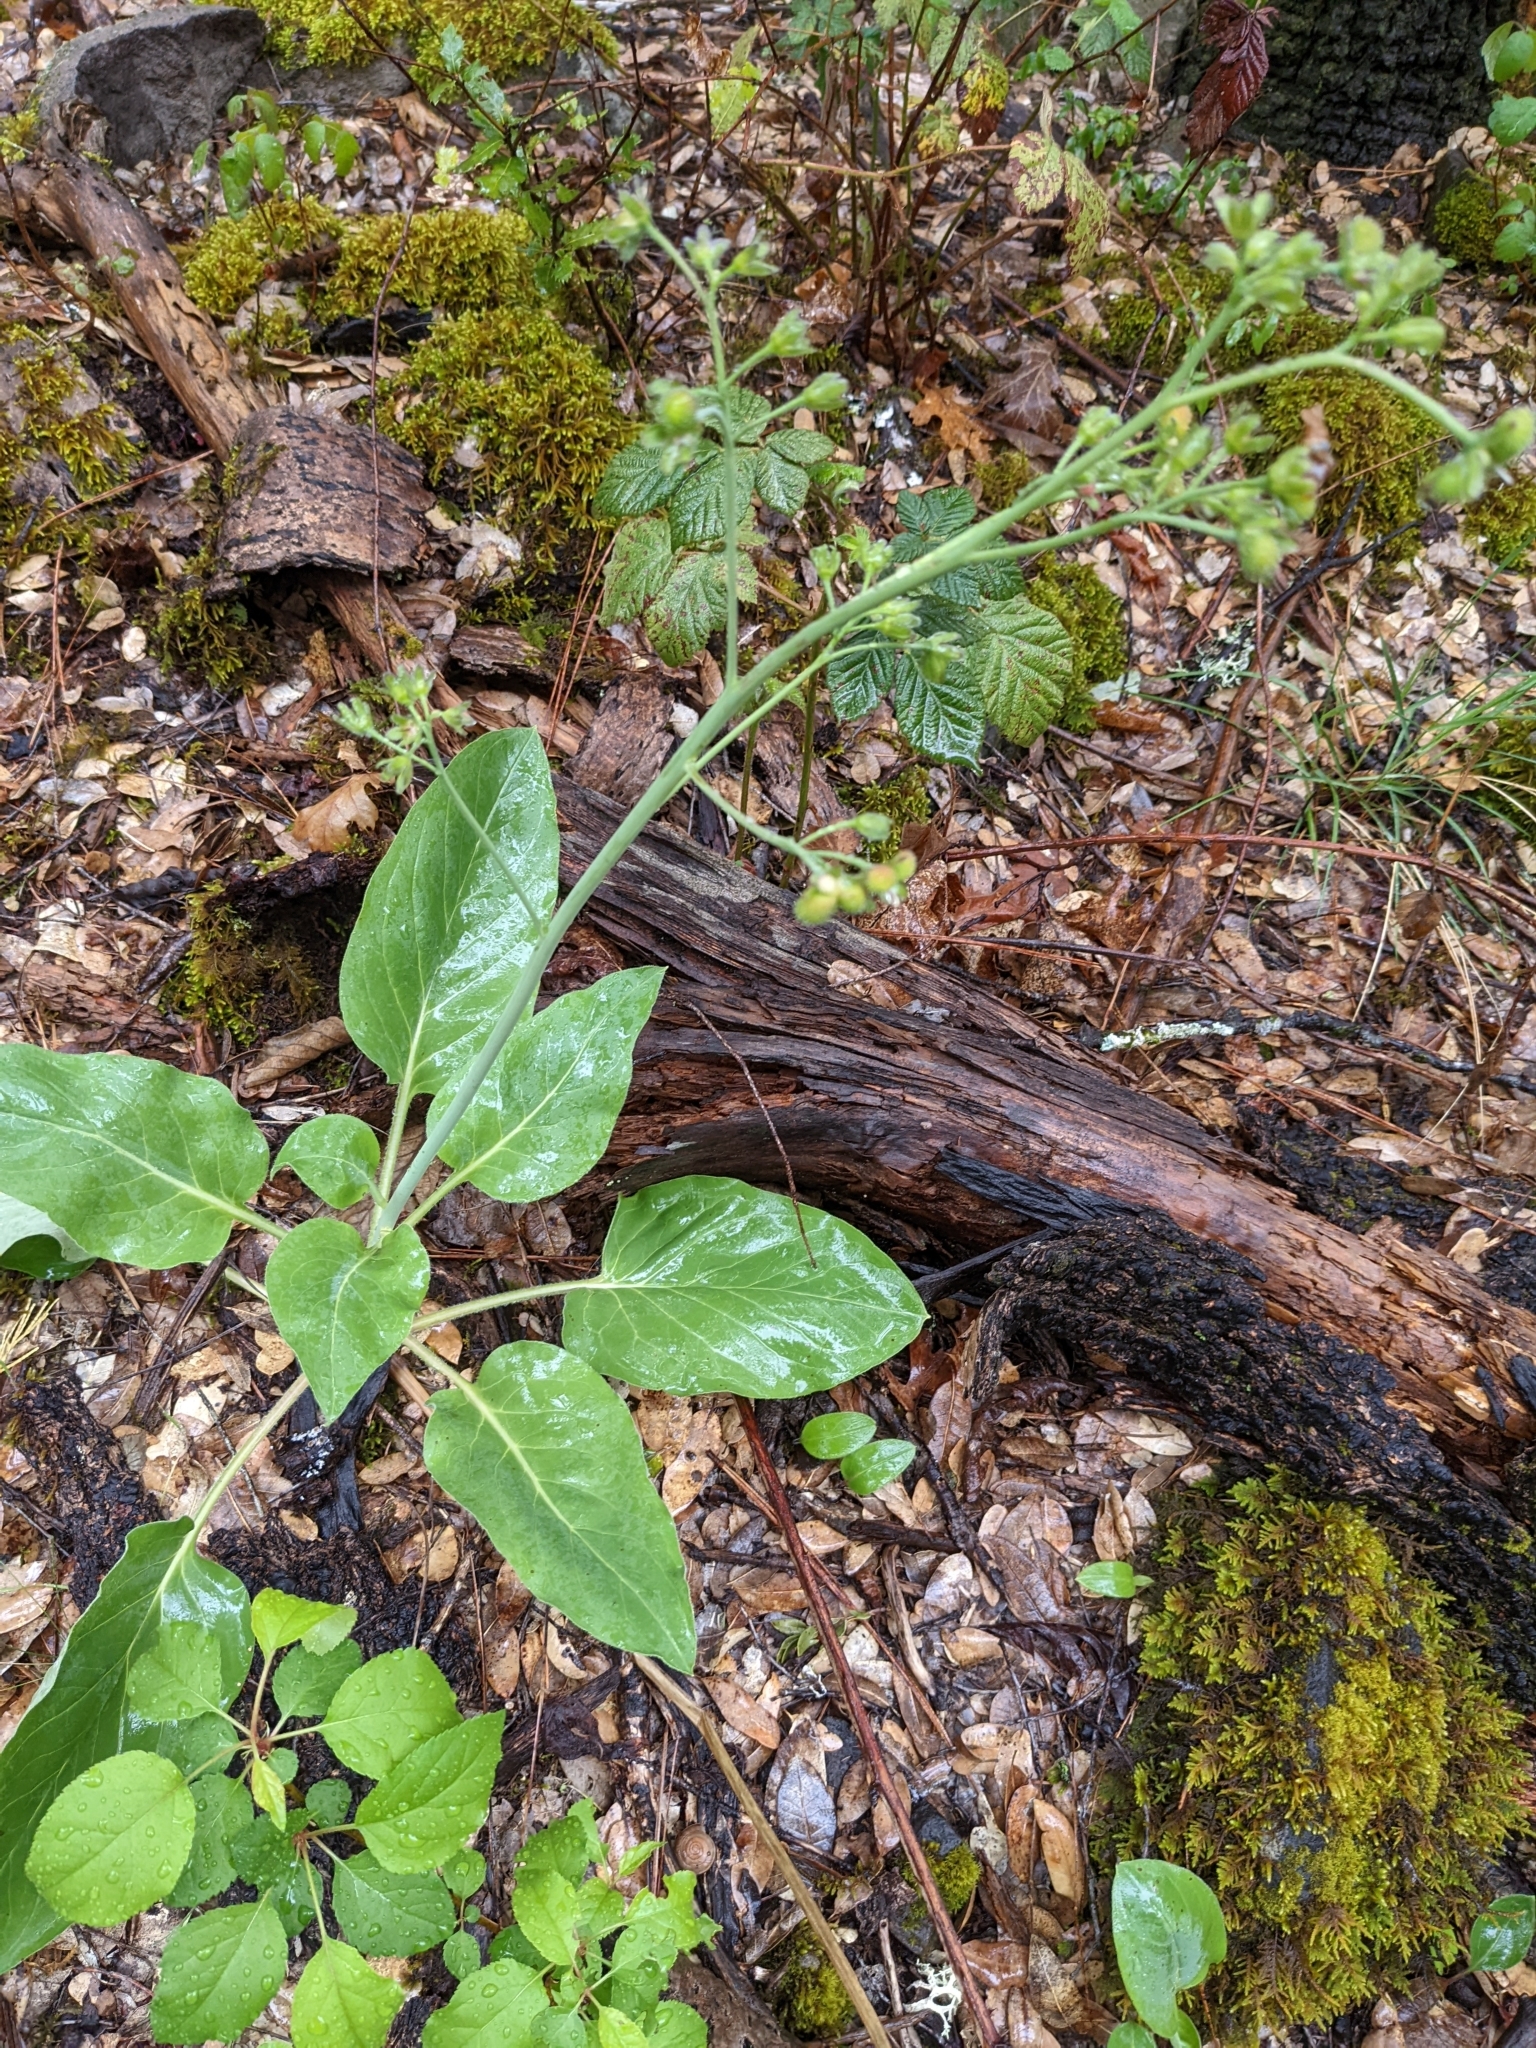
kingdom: Plantae
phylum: Tracheophyta
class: Magnoliopsida
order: Boraginales
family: Boraginaceae
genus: Adelinia
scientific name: Adelinia grande
